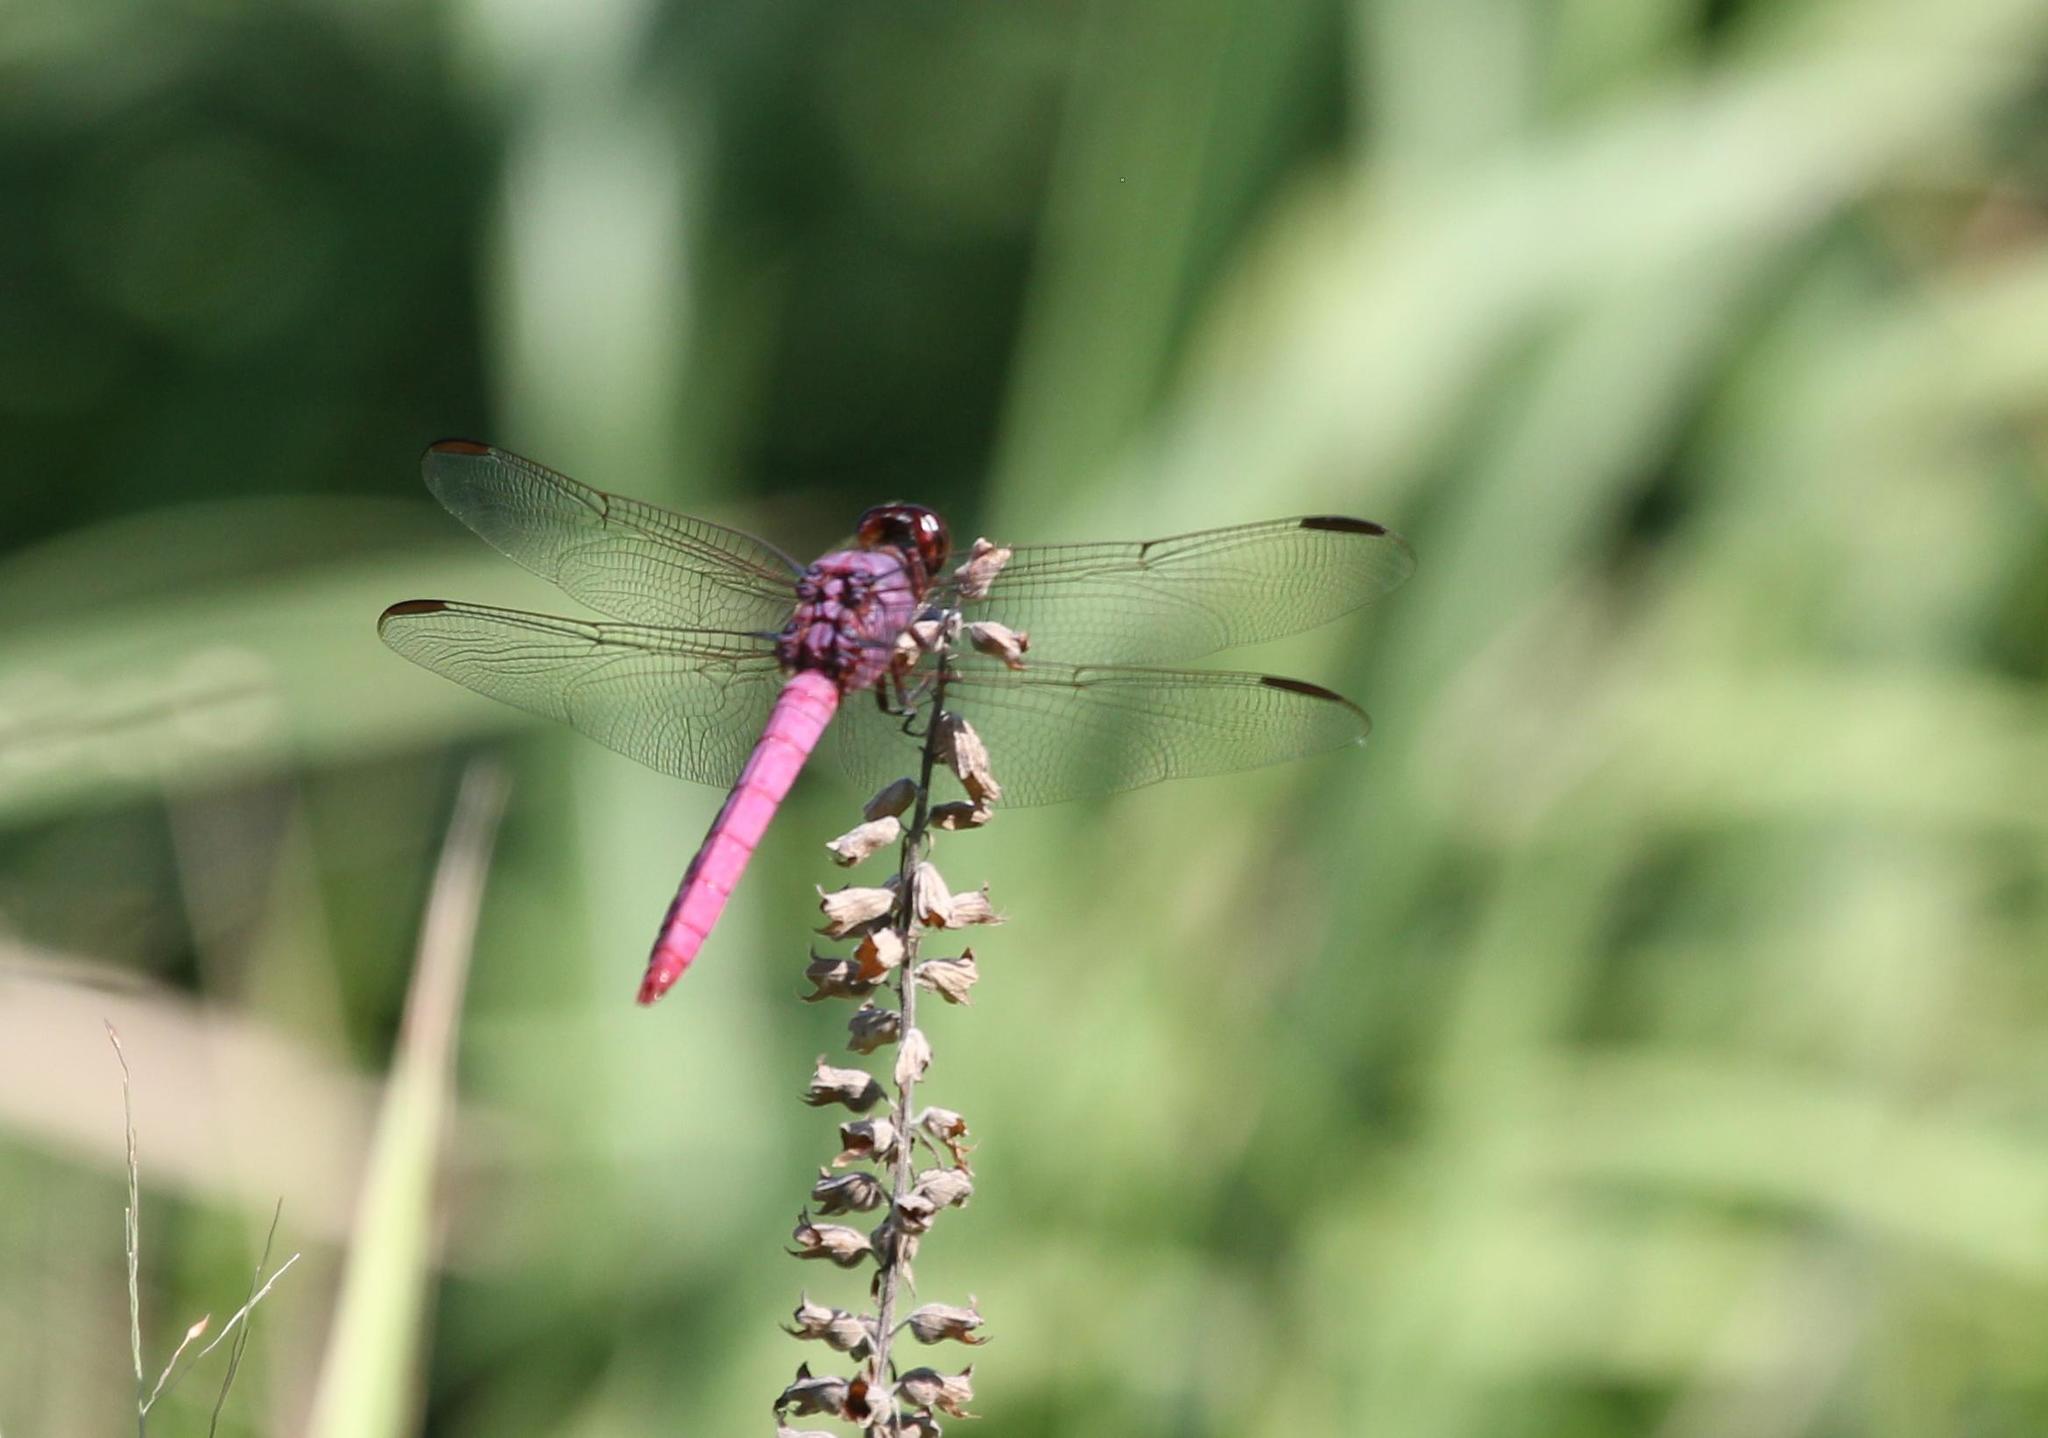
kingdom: Animalia
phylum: Arthropoda
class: Insecta
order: Odonata
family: Libellulidae
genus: Orthemis
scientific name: Orthemis ferruginea
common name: Roseate skimmer
